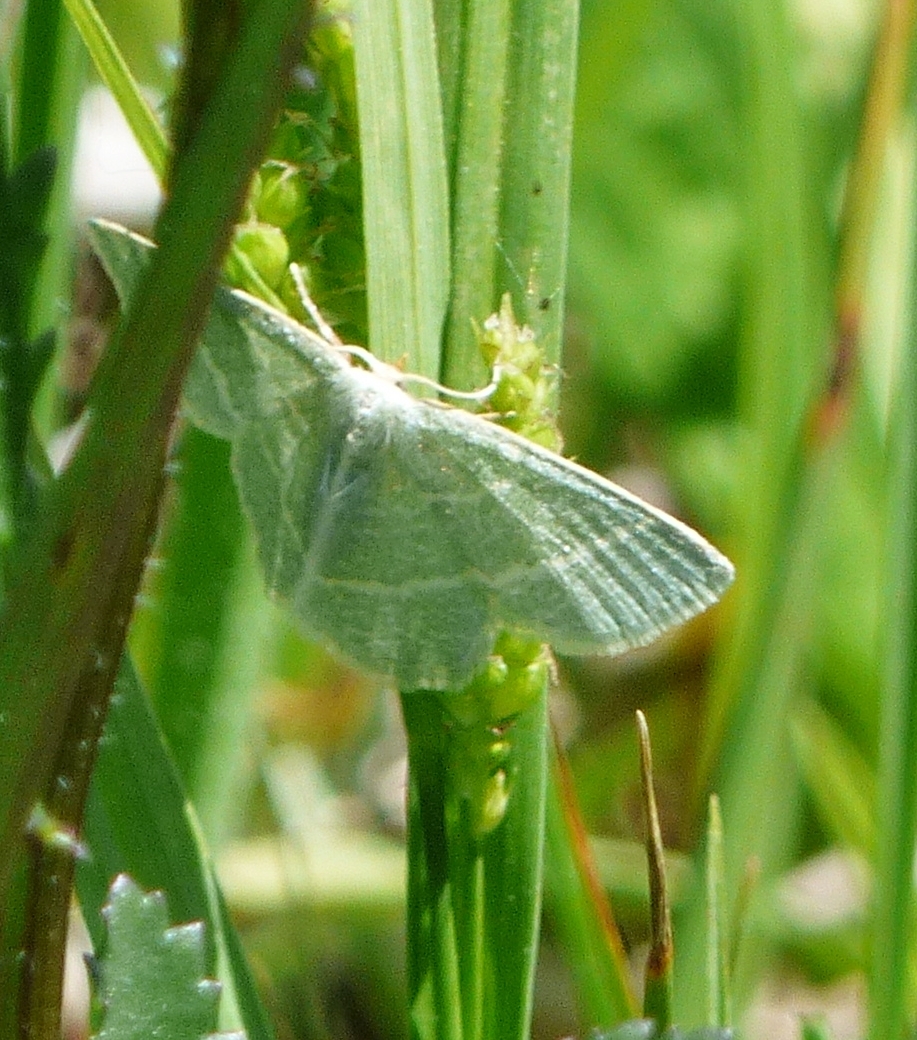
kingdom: Animalia
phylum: Arthropoda
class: Insecta
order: Lepidoptera
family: Geometridae
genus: Chlorochlamys
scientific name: Chlorochlamys chloroleucaria
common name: Blackberry looper
